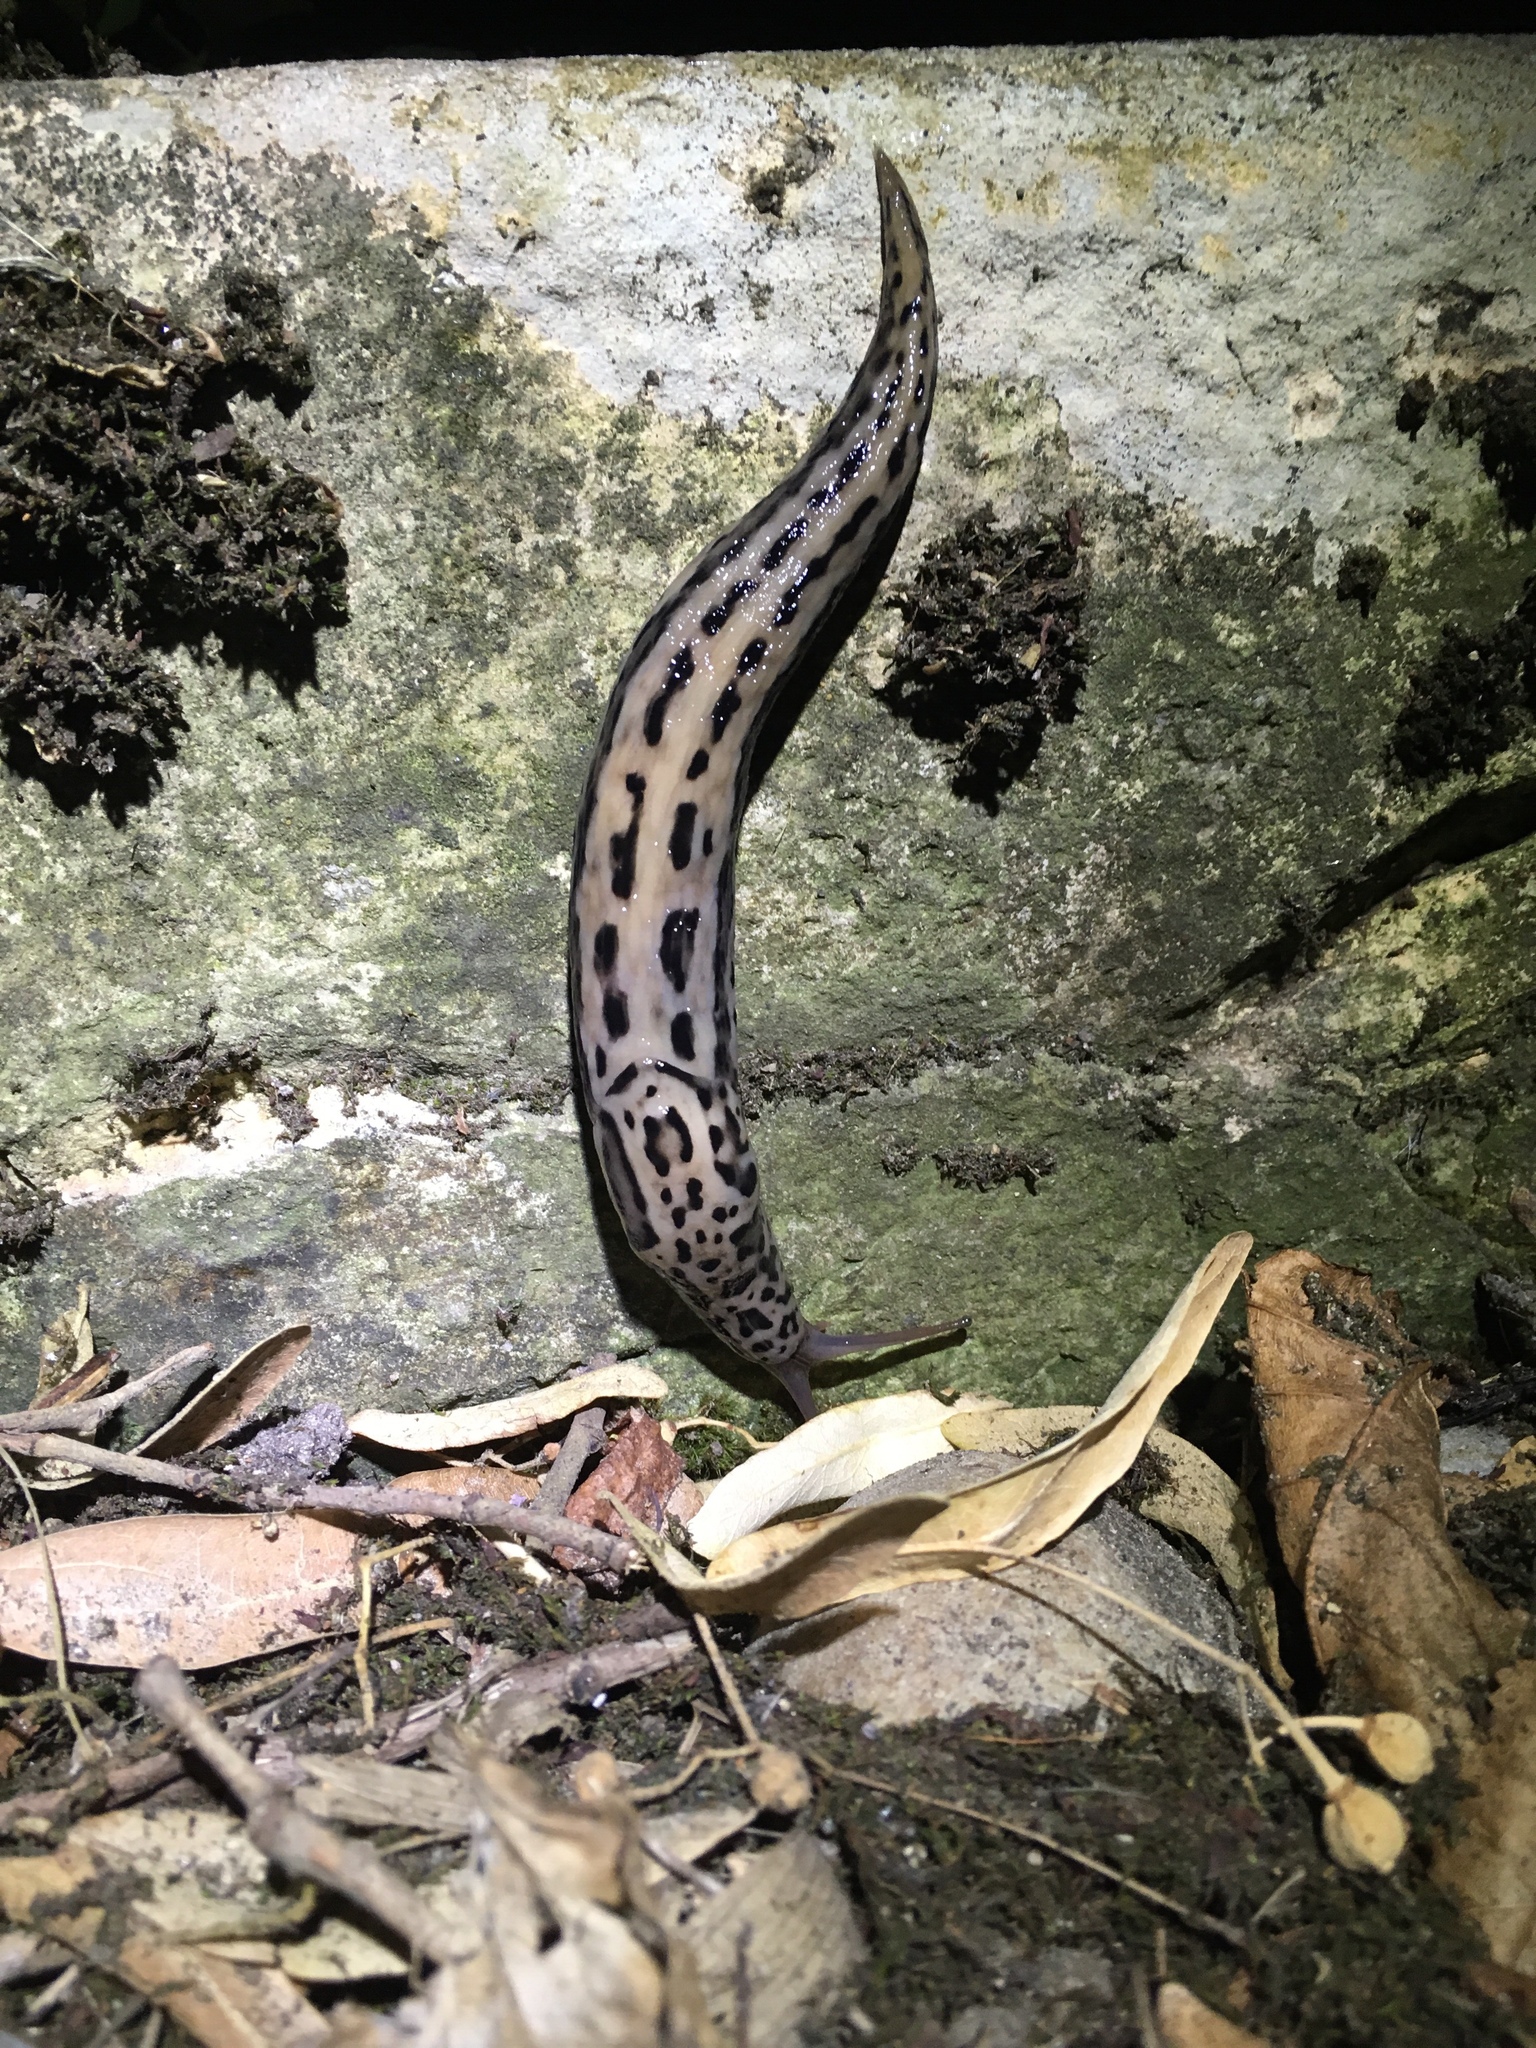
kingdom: Animalia
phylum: Mollusca
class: Gastropoda
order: Stylommatophora
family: Limacidae
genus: Limax
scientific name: Limax maximus
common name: Great grey slug
